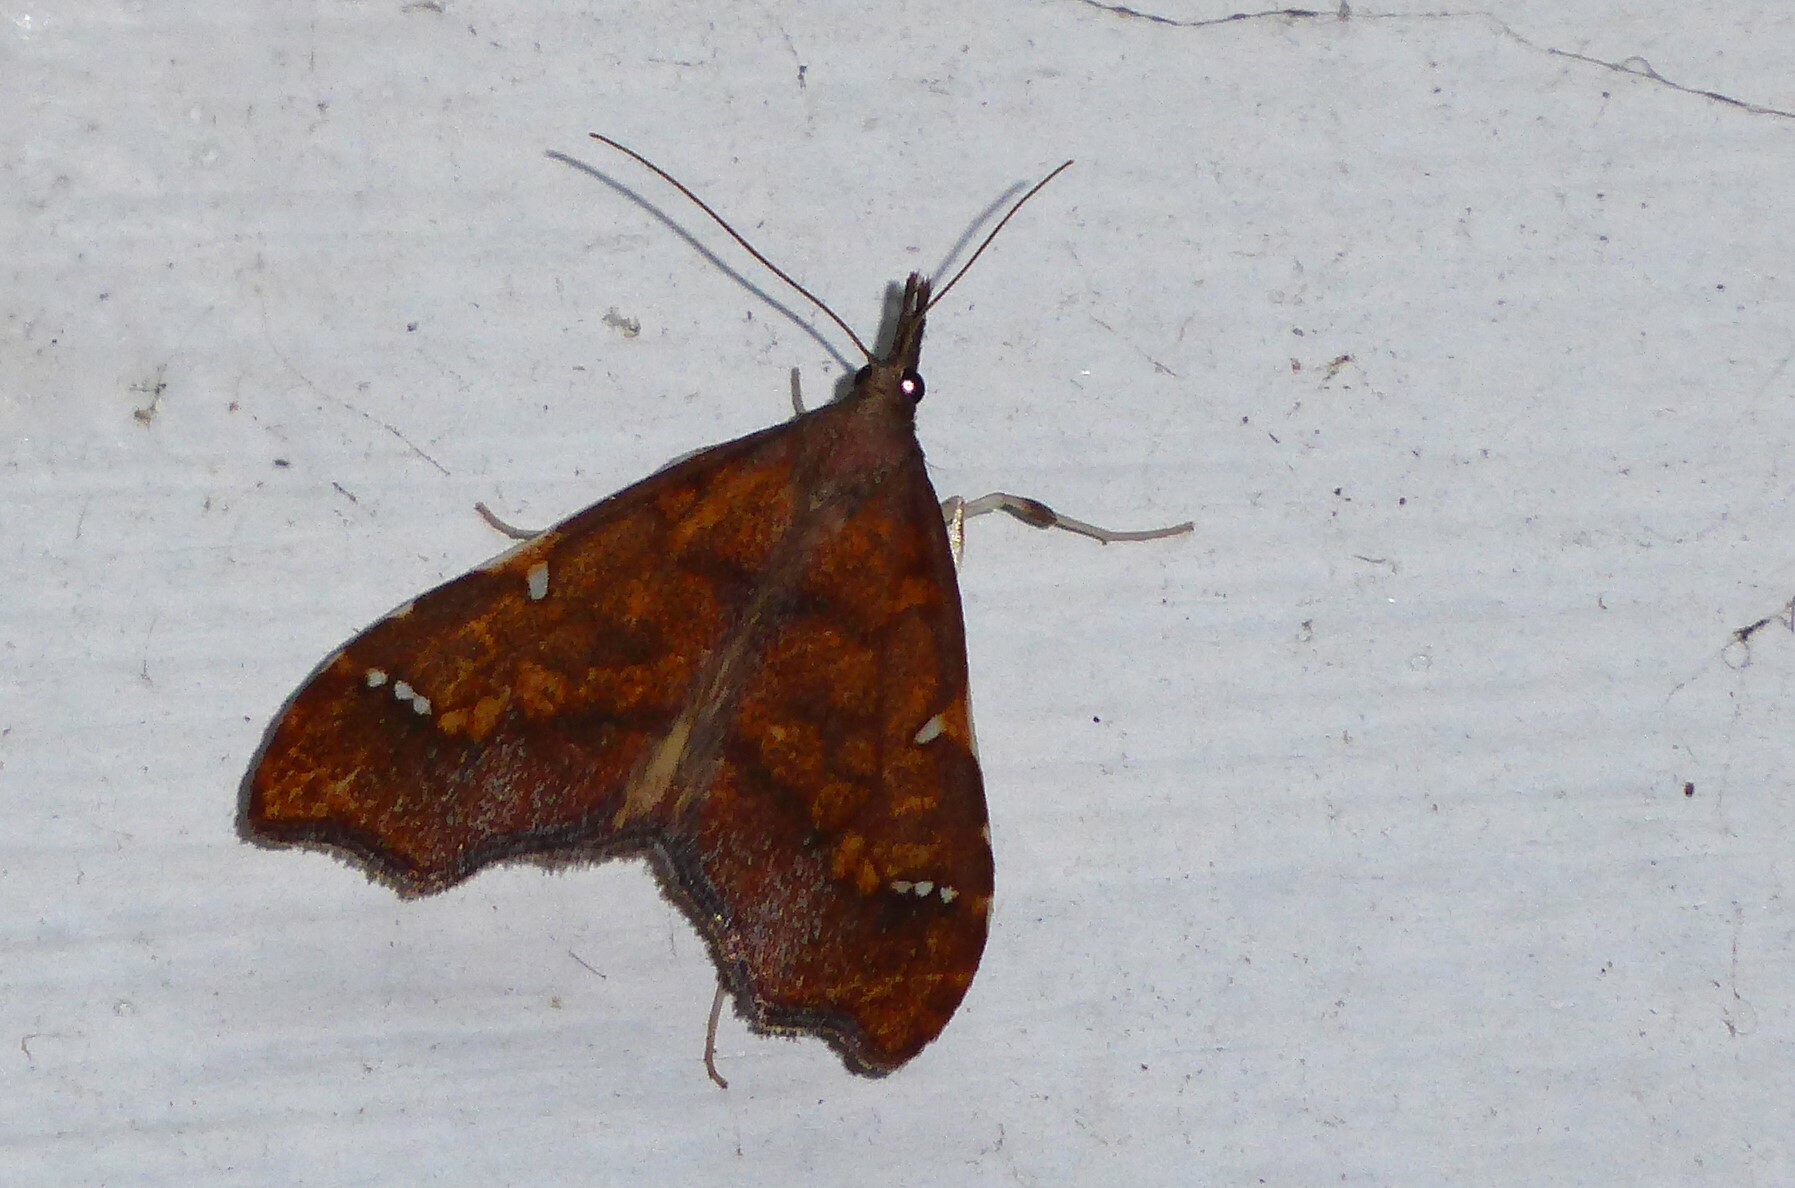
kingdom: Animalia
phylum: Arthropoda
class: Insecta
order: Lepidoptera
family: Crambidae
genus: Deana
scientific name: Deana hybreasalis
